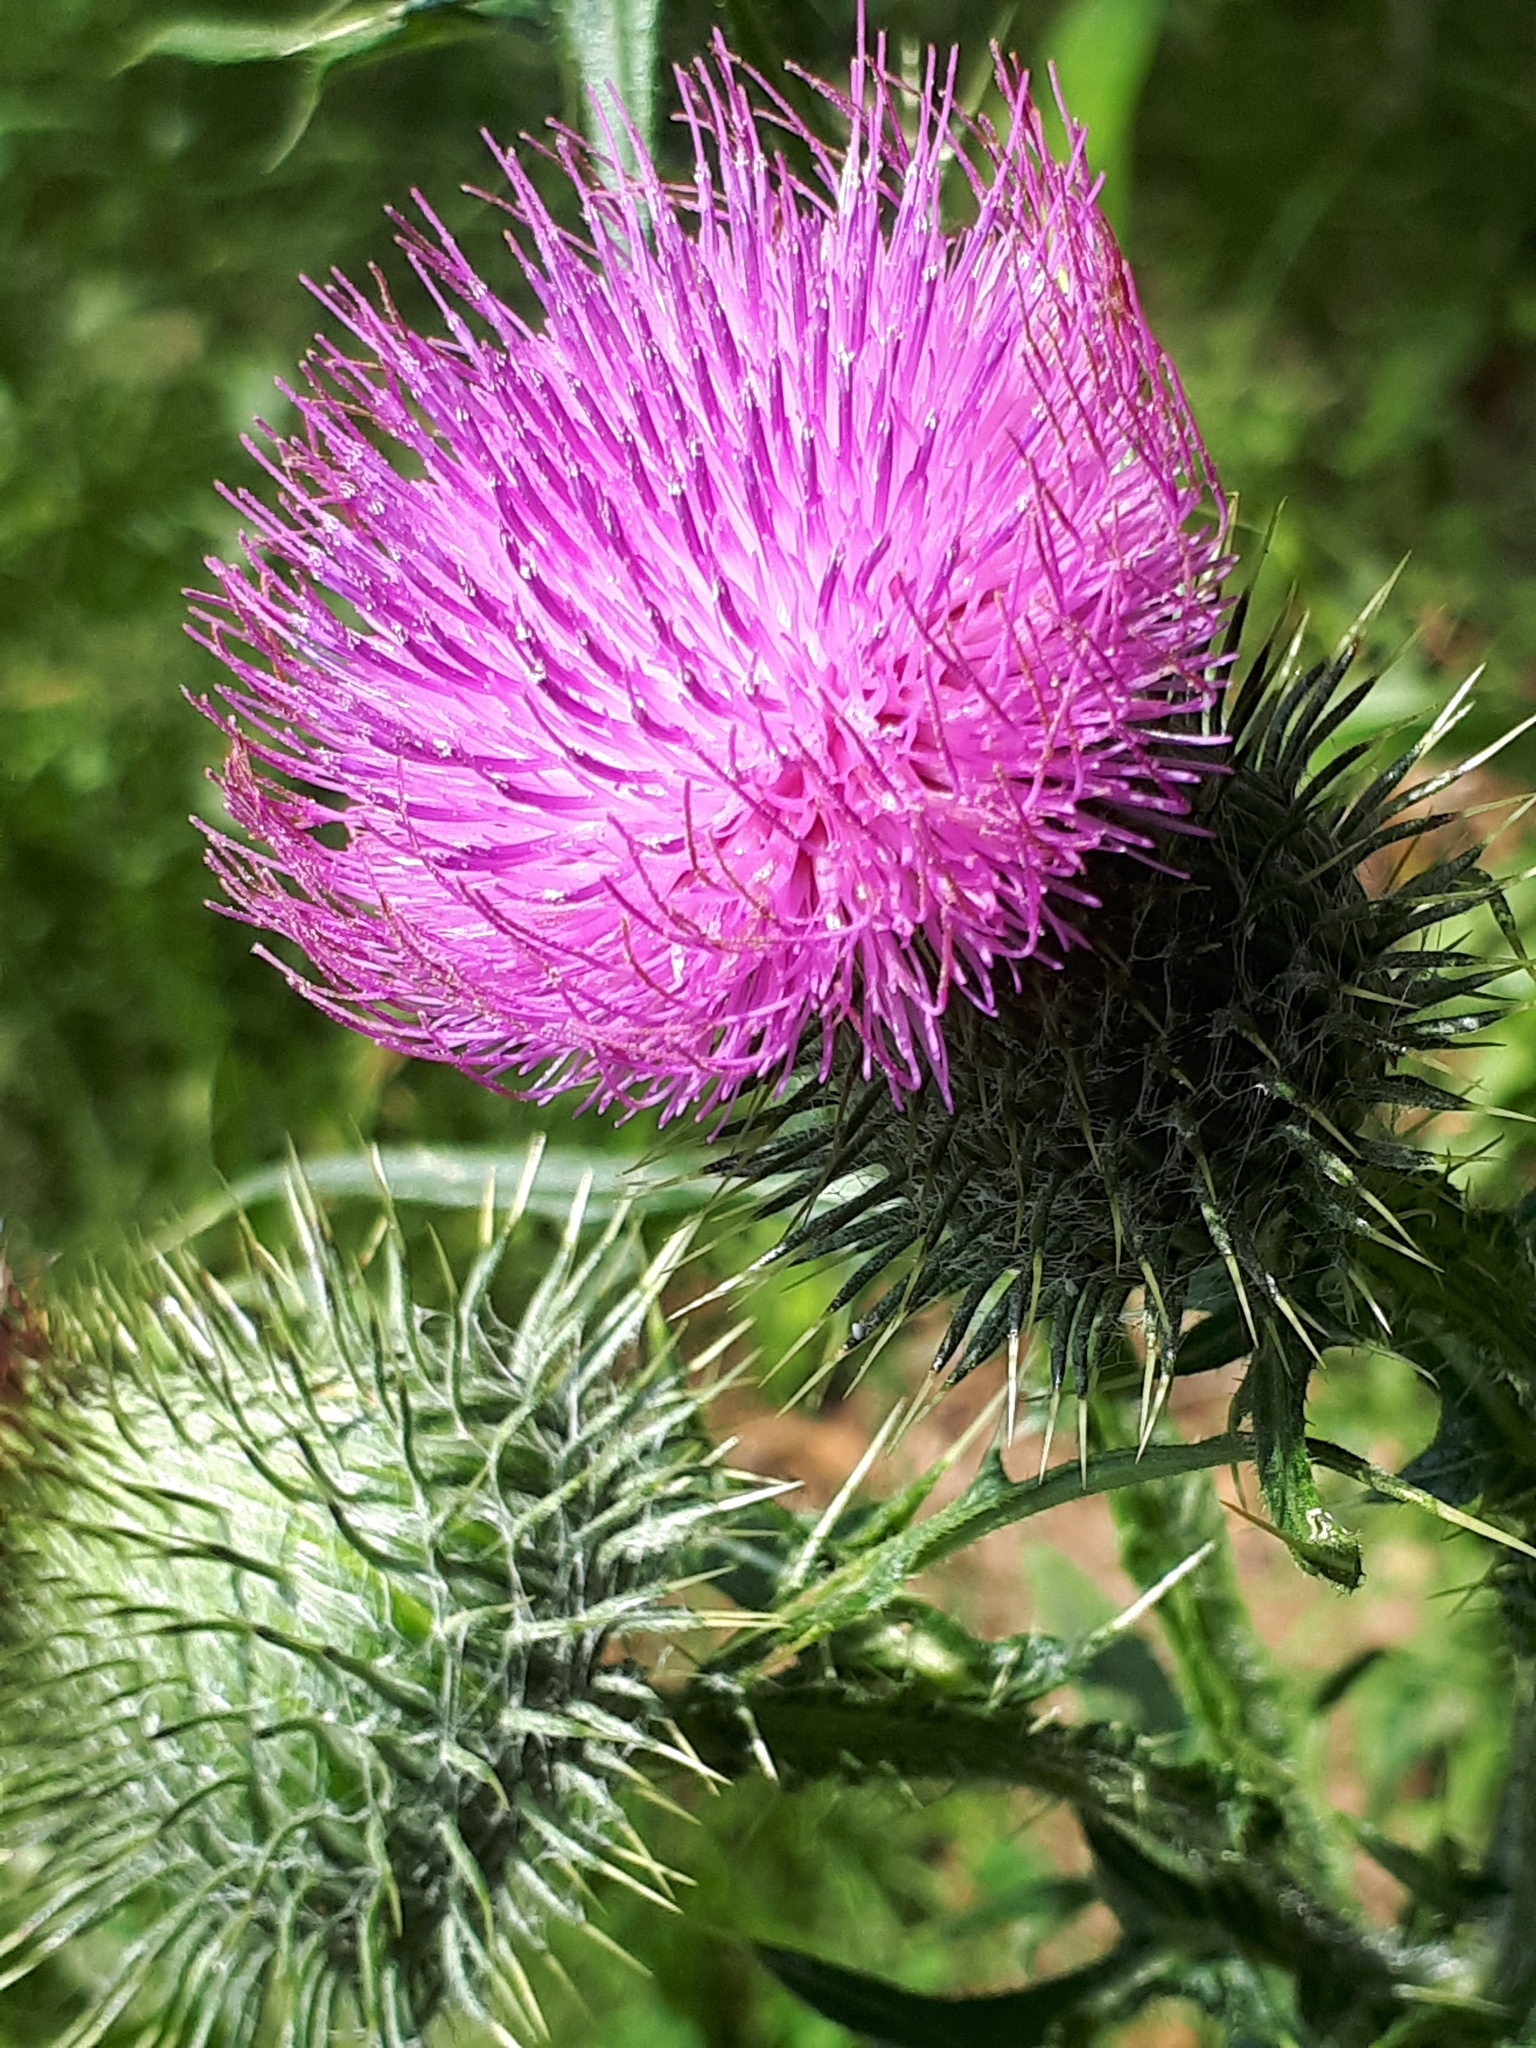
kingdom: Plantae
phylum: Tracheophyta
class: Magnoliopsida
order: Asterales
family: Asteraceae
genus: Cirsium
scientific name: Cirsium vulgare
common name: Bull thistle
